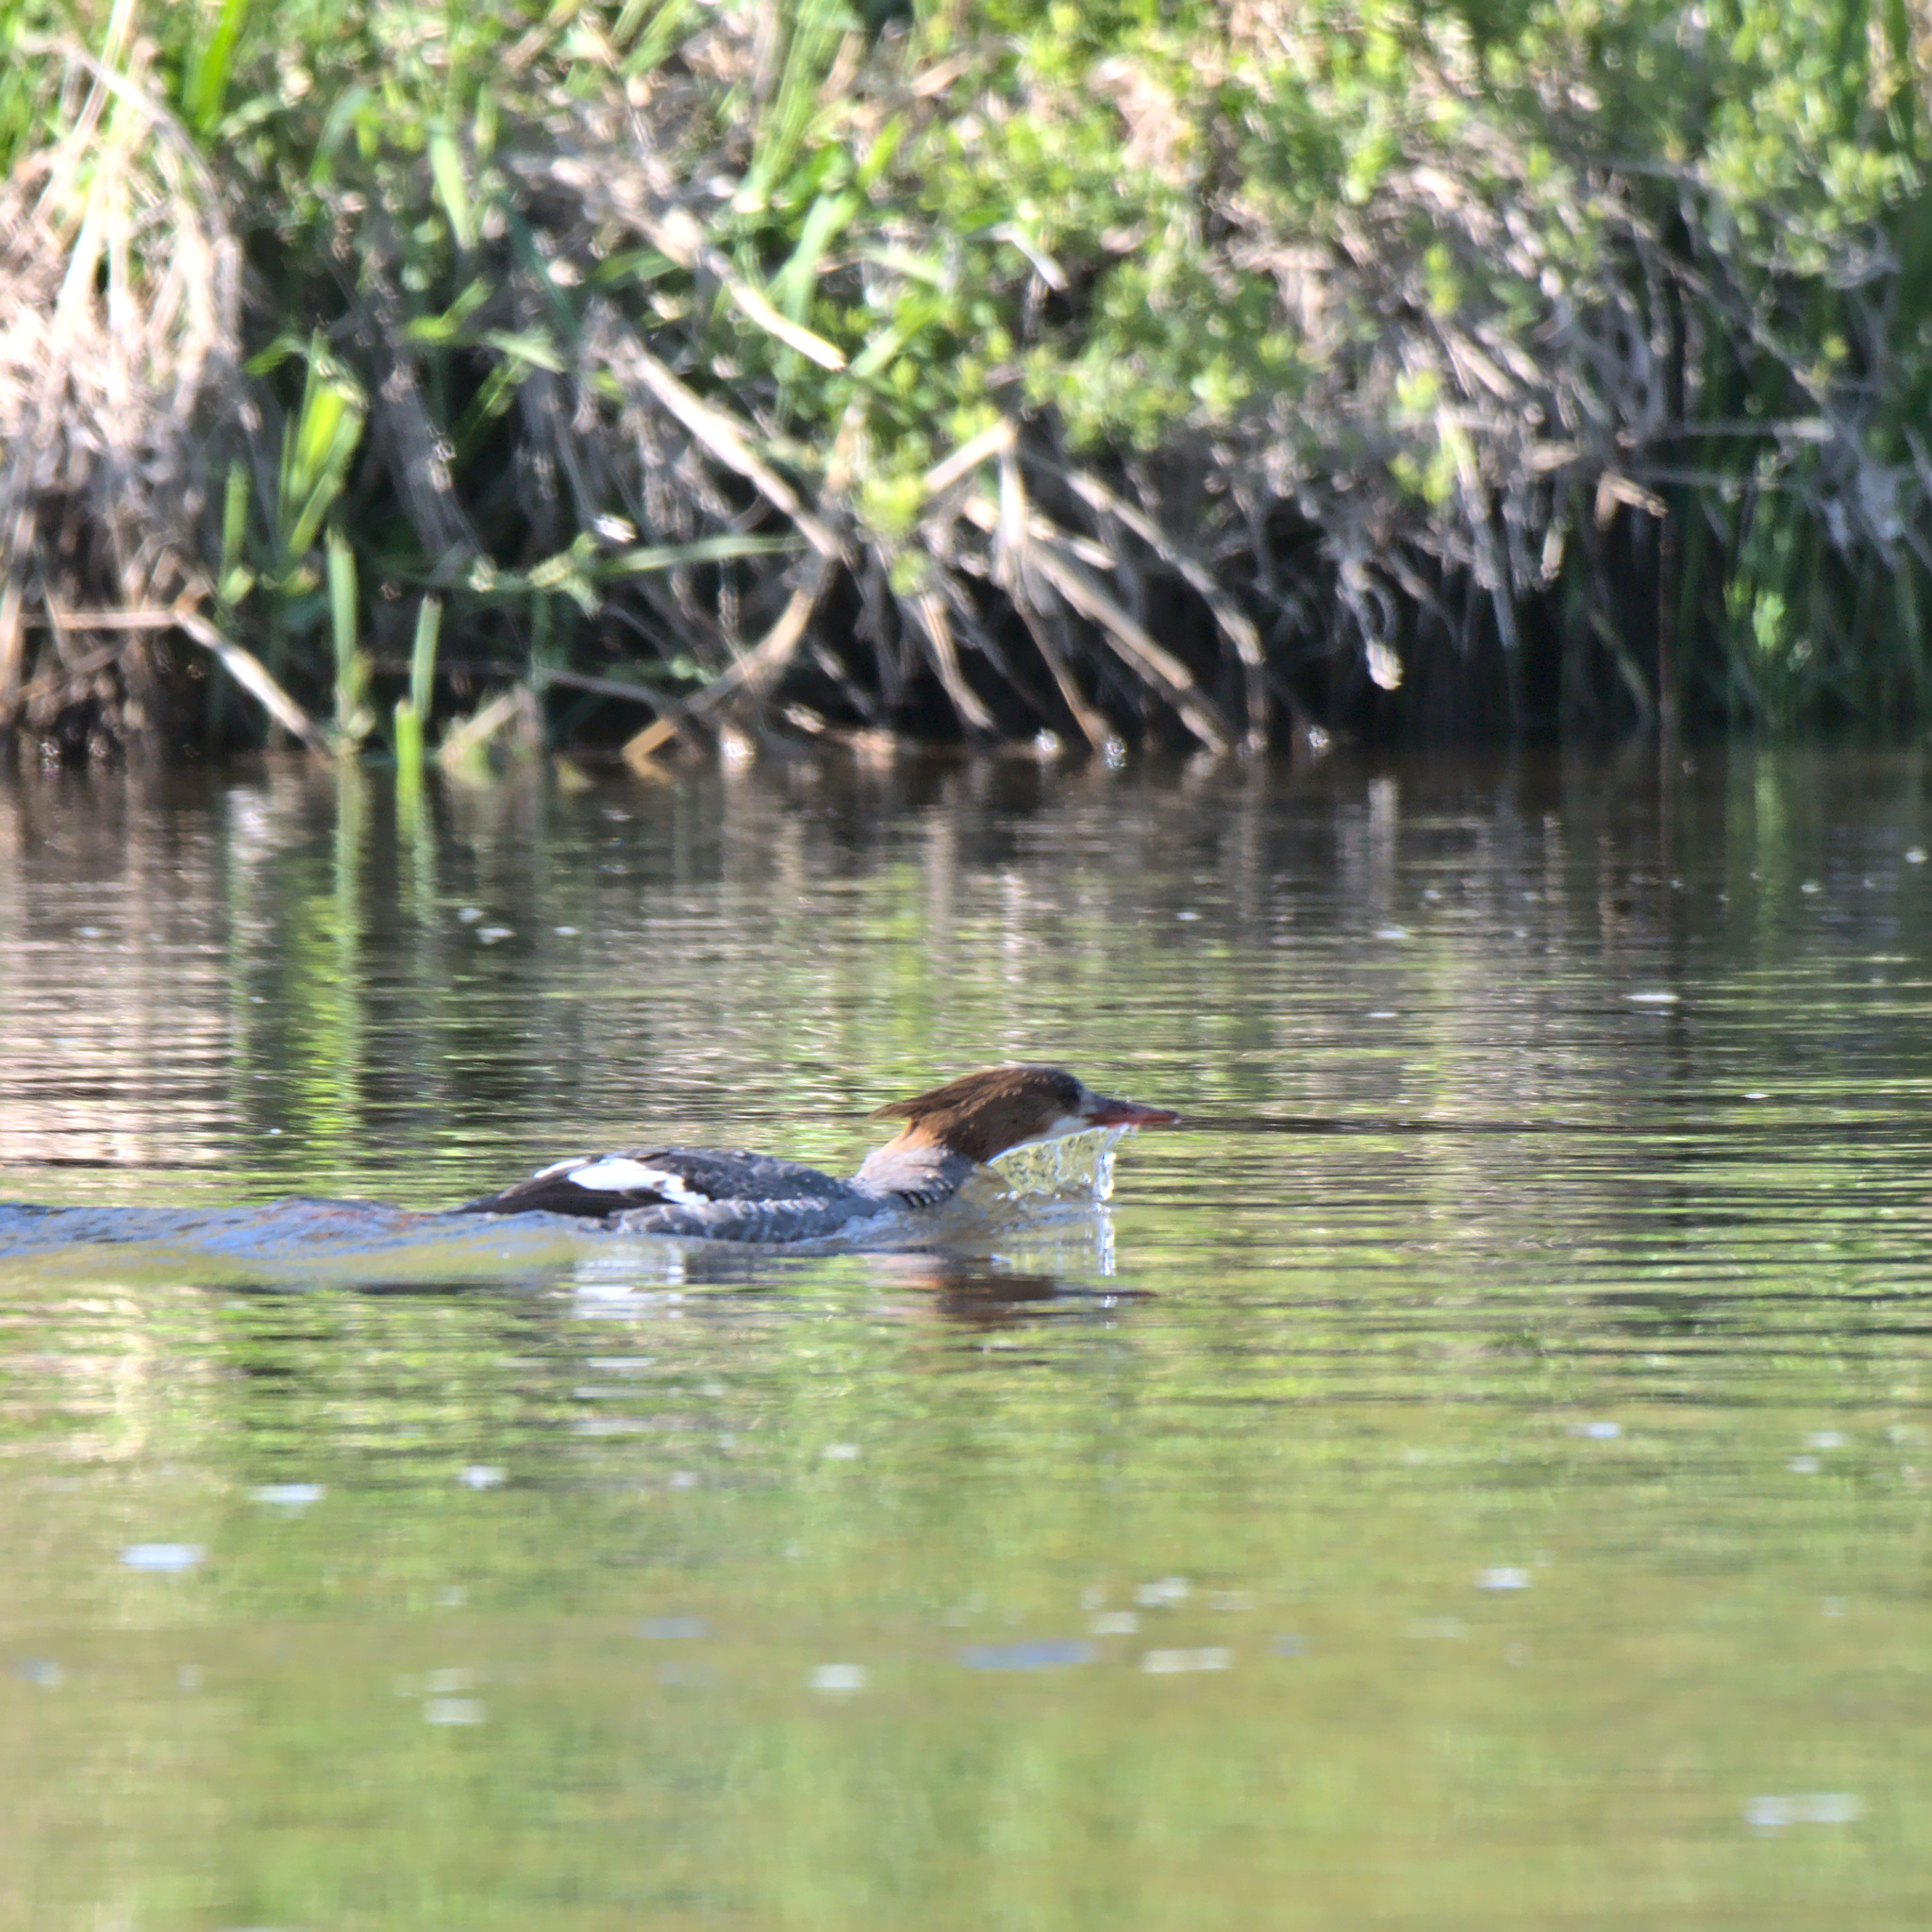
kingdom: Animalia
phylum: Chordata
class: Aves
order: Anseriformes
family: Anatidae
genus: Mergus
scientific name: Mergus merganser
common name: Common merganser
